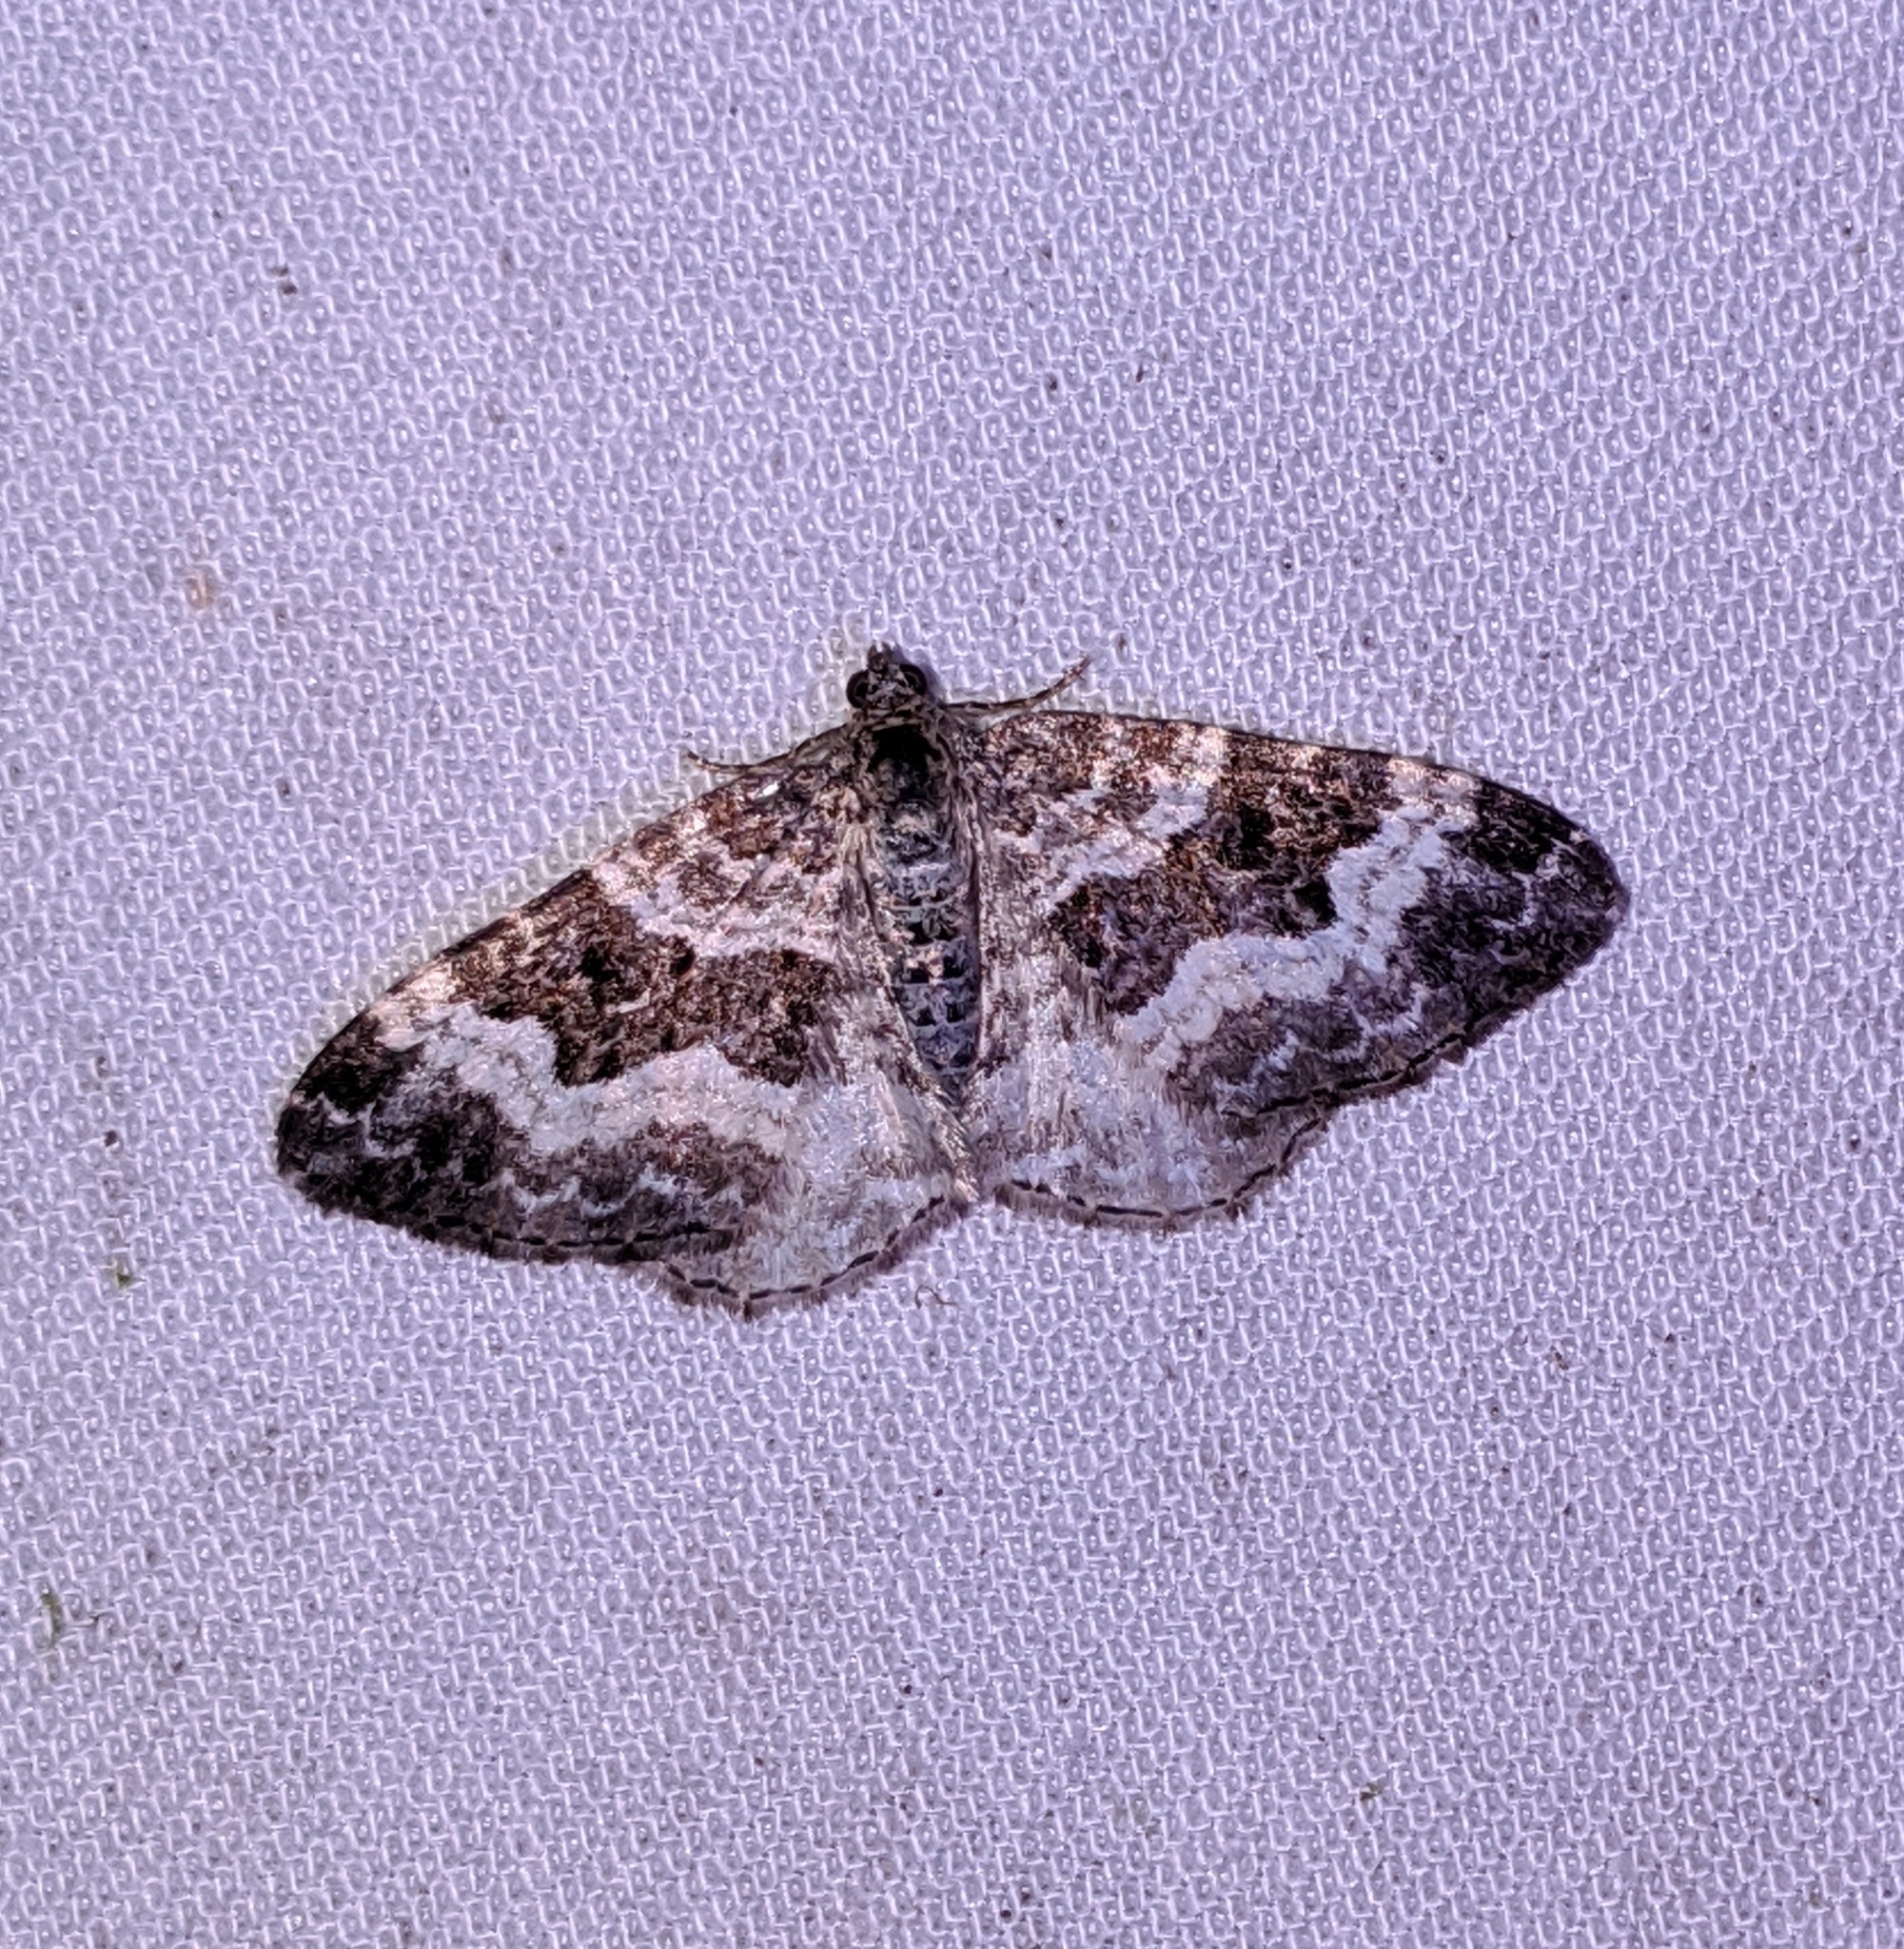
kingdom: Animalia
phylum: Arthropoda
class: Insecta
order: Lepidoptera
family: Geometridae
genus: Epirrhoe
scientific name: Epirrhoe alternata
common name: Common carpet
